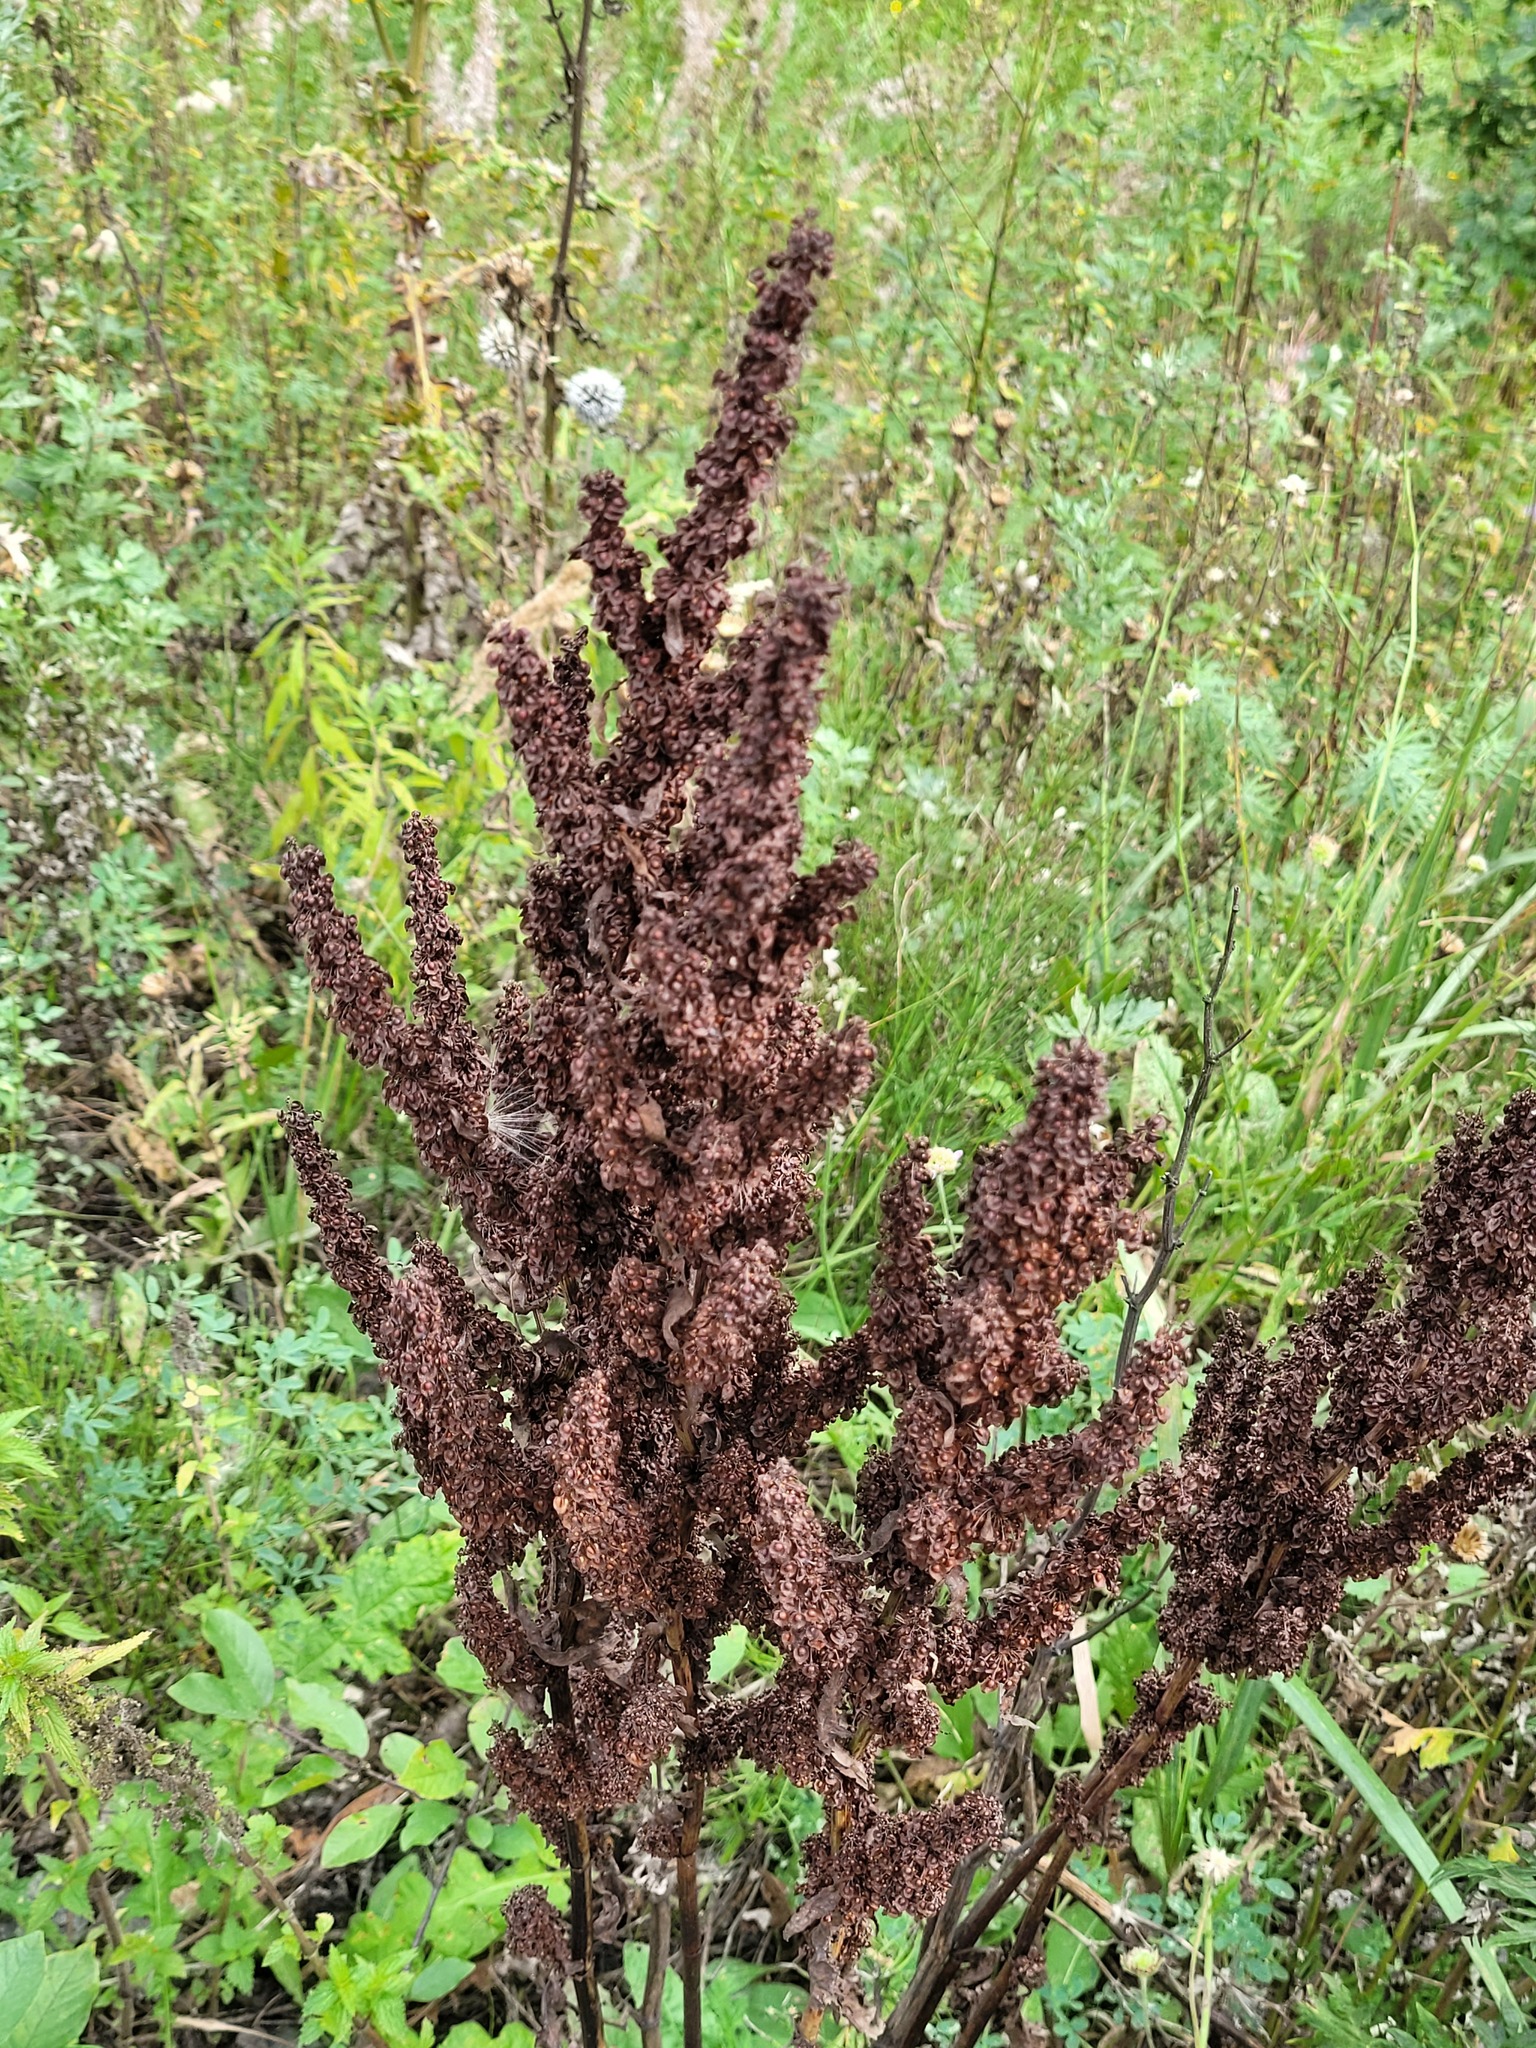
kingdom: Plantae
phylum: Tracheophyta
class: Magnoliopsida
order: Caryophyllales
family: Polygonaceae
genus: Rumex
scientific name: Rumex crispus
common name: Curled dock
